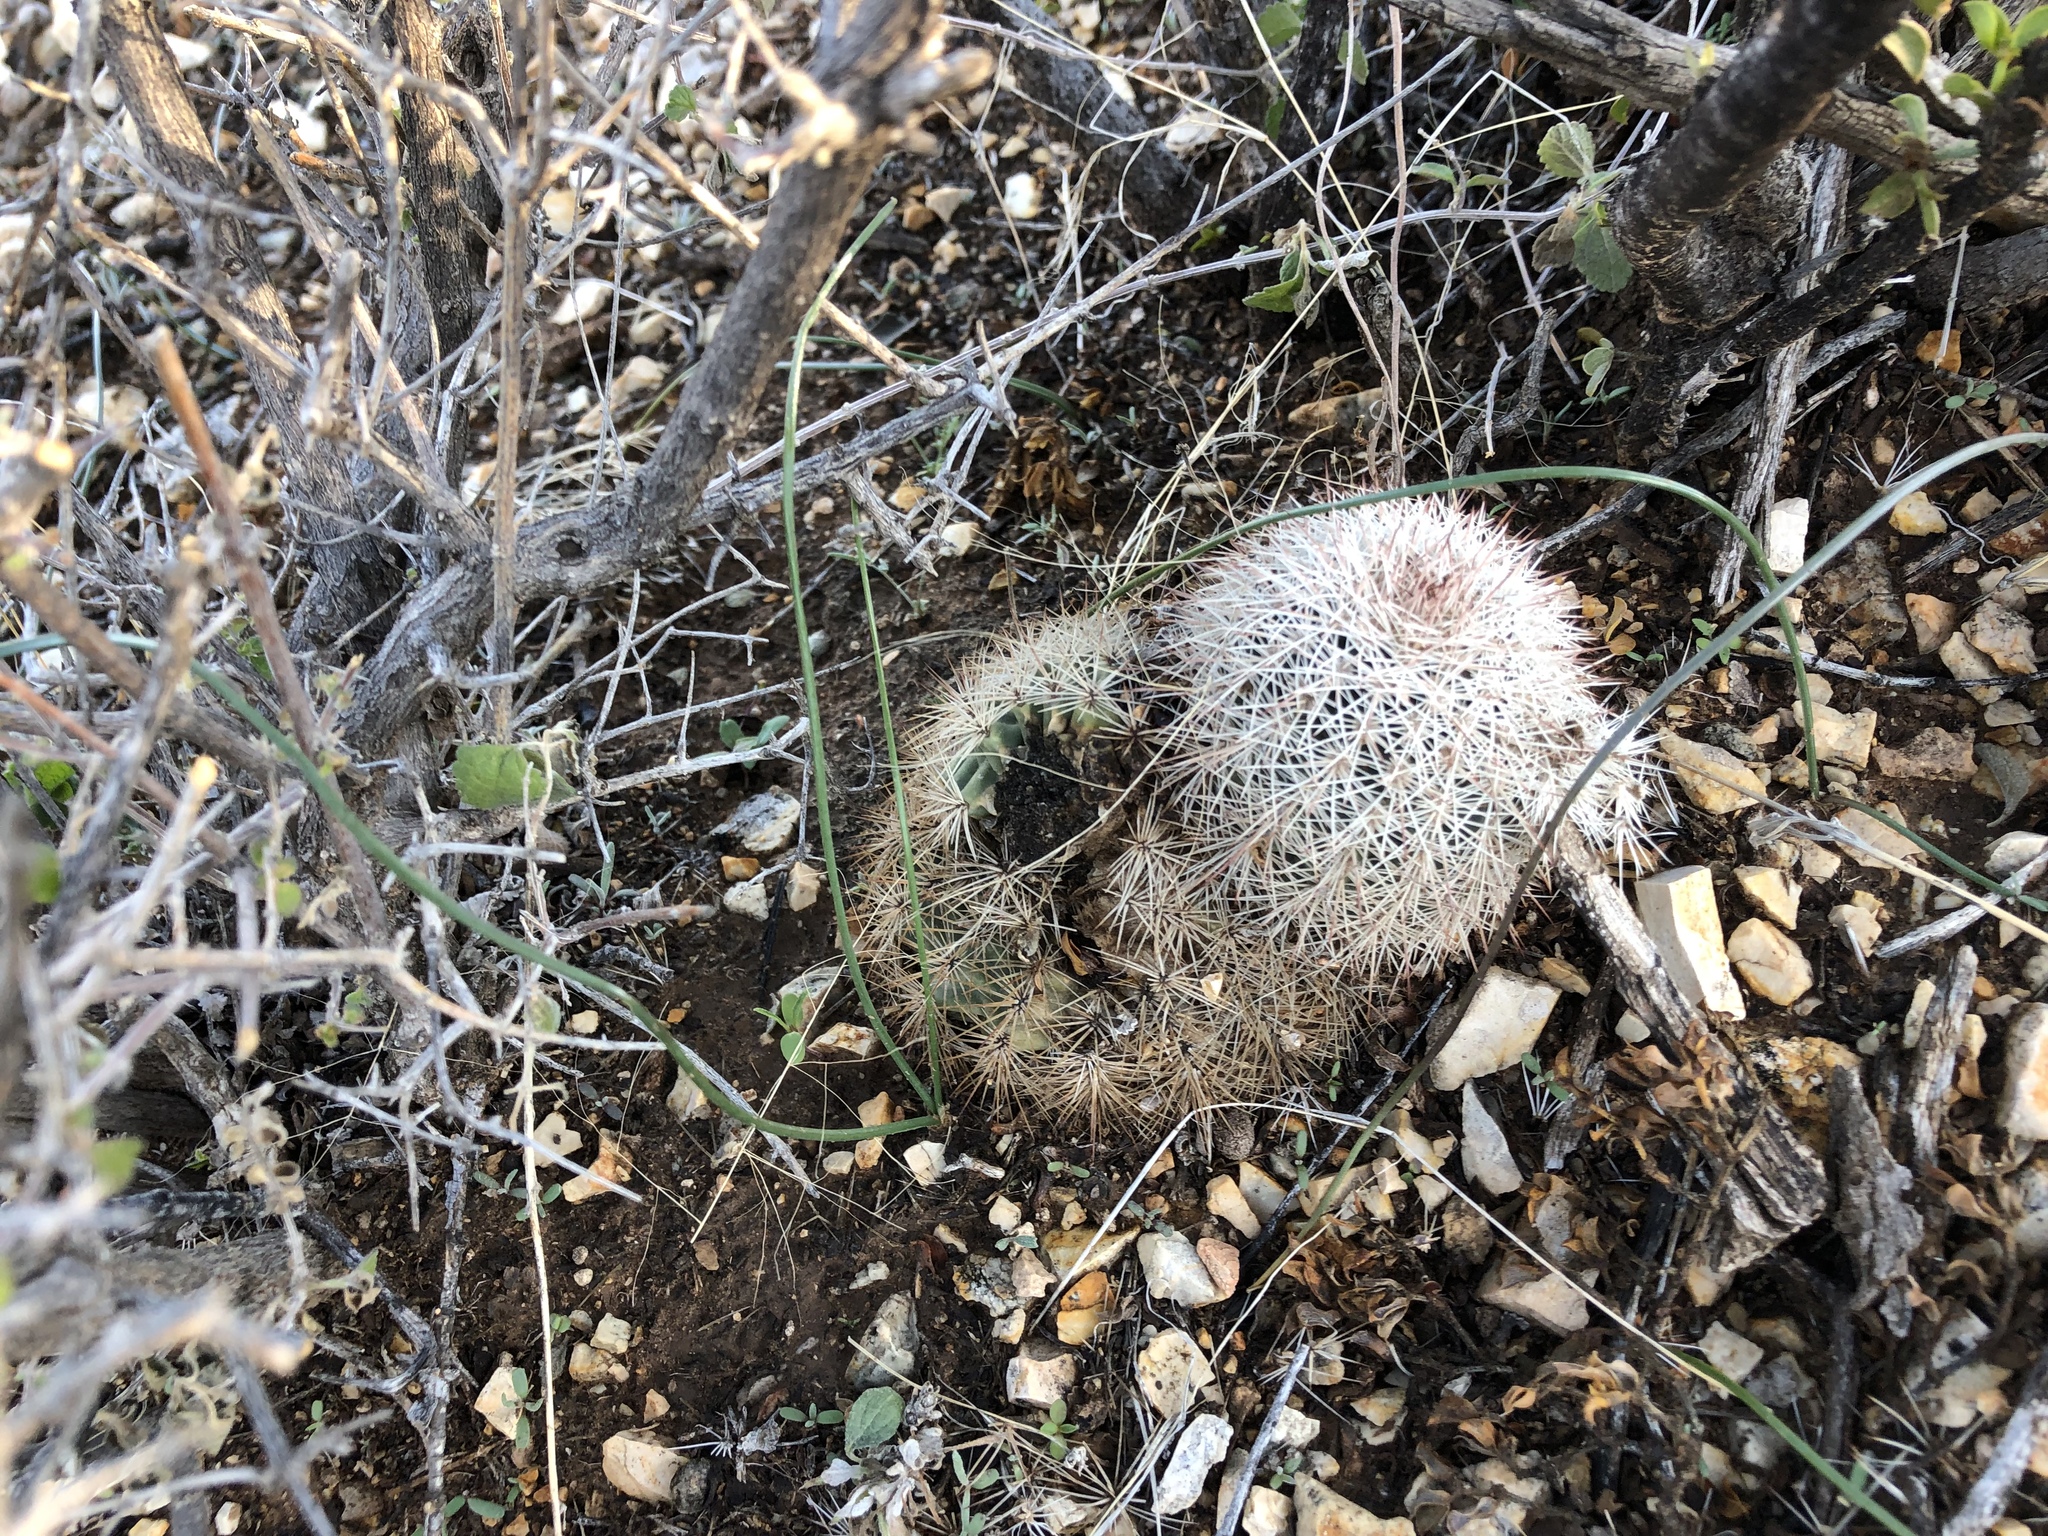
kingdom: Plantae
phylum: Tracheophyta
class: Magnoliopsida
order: Caryophyllales
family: Cactaceae
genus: Echinocereus
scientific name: Echinocereus dasyacanthus
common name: Spiny hedgehog cactus
